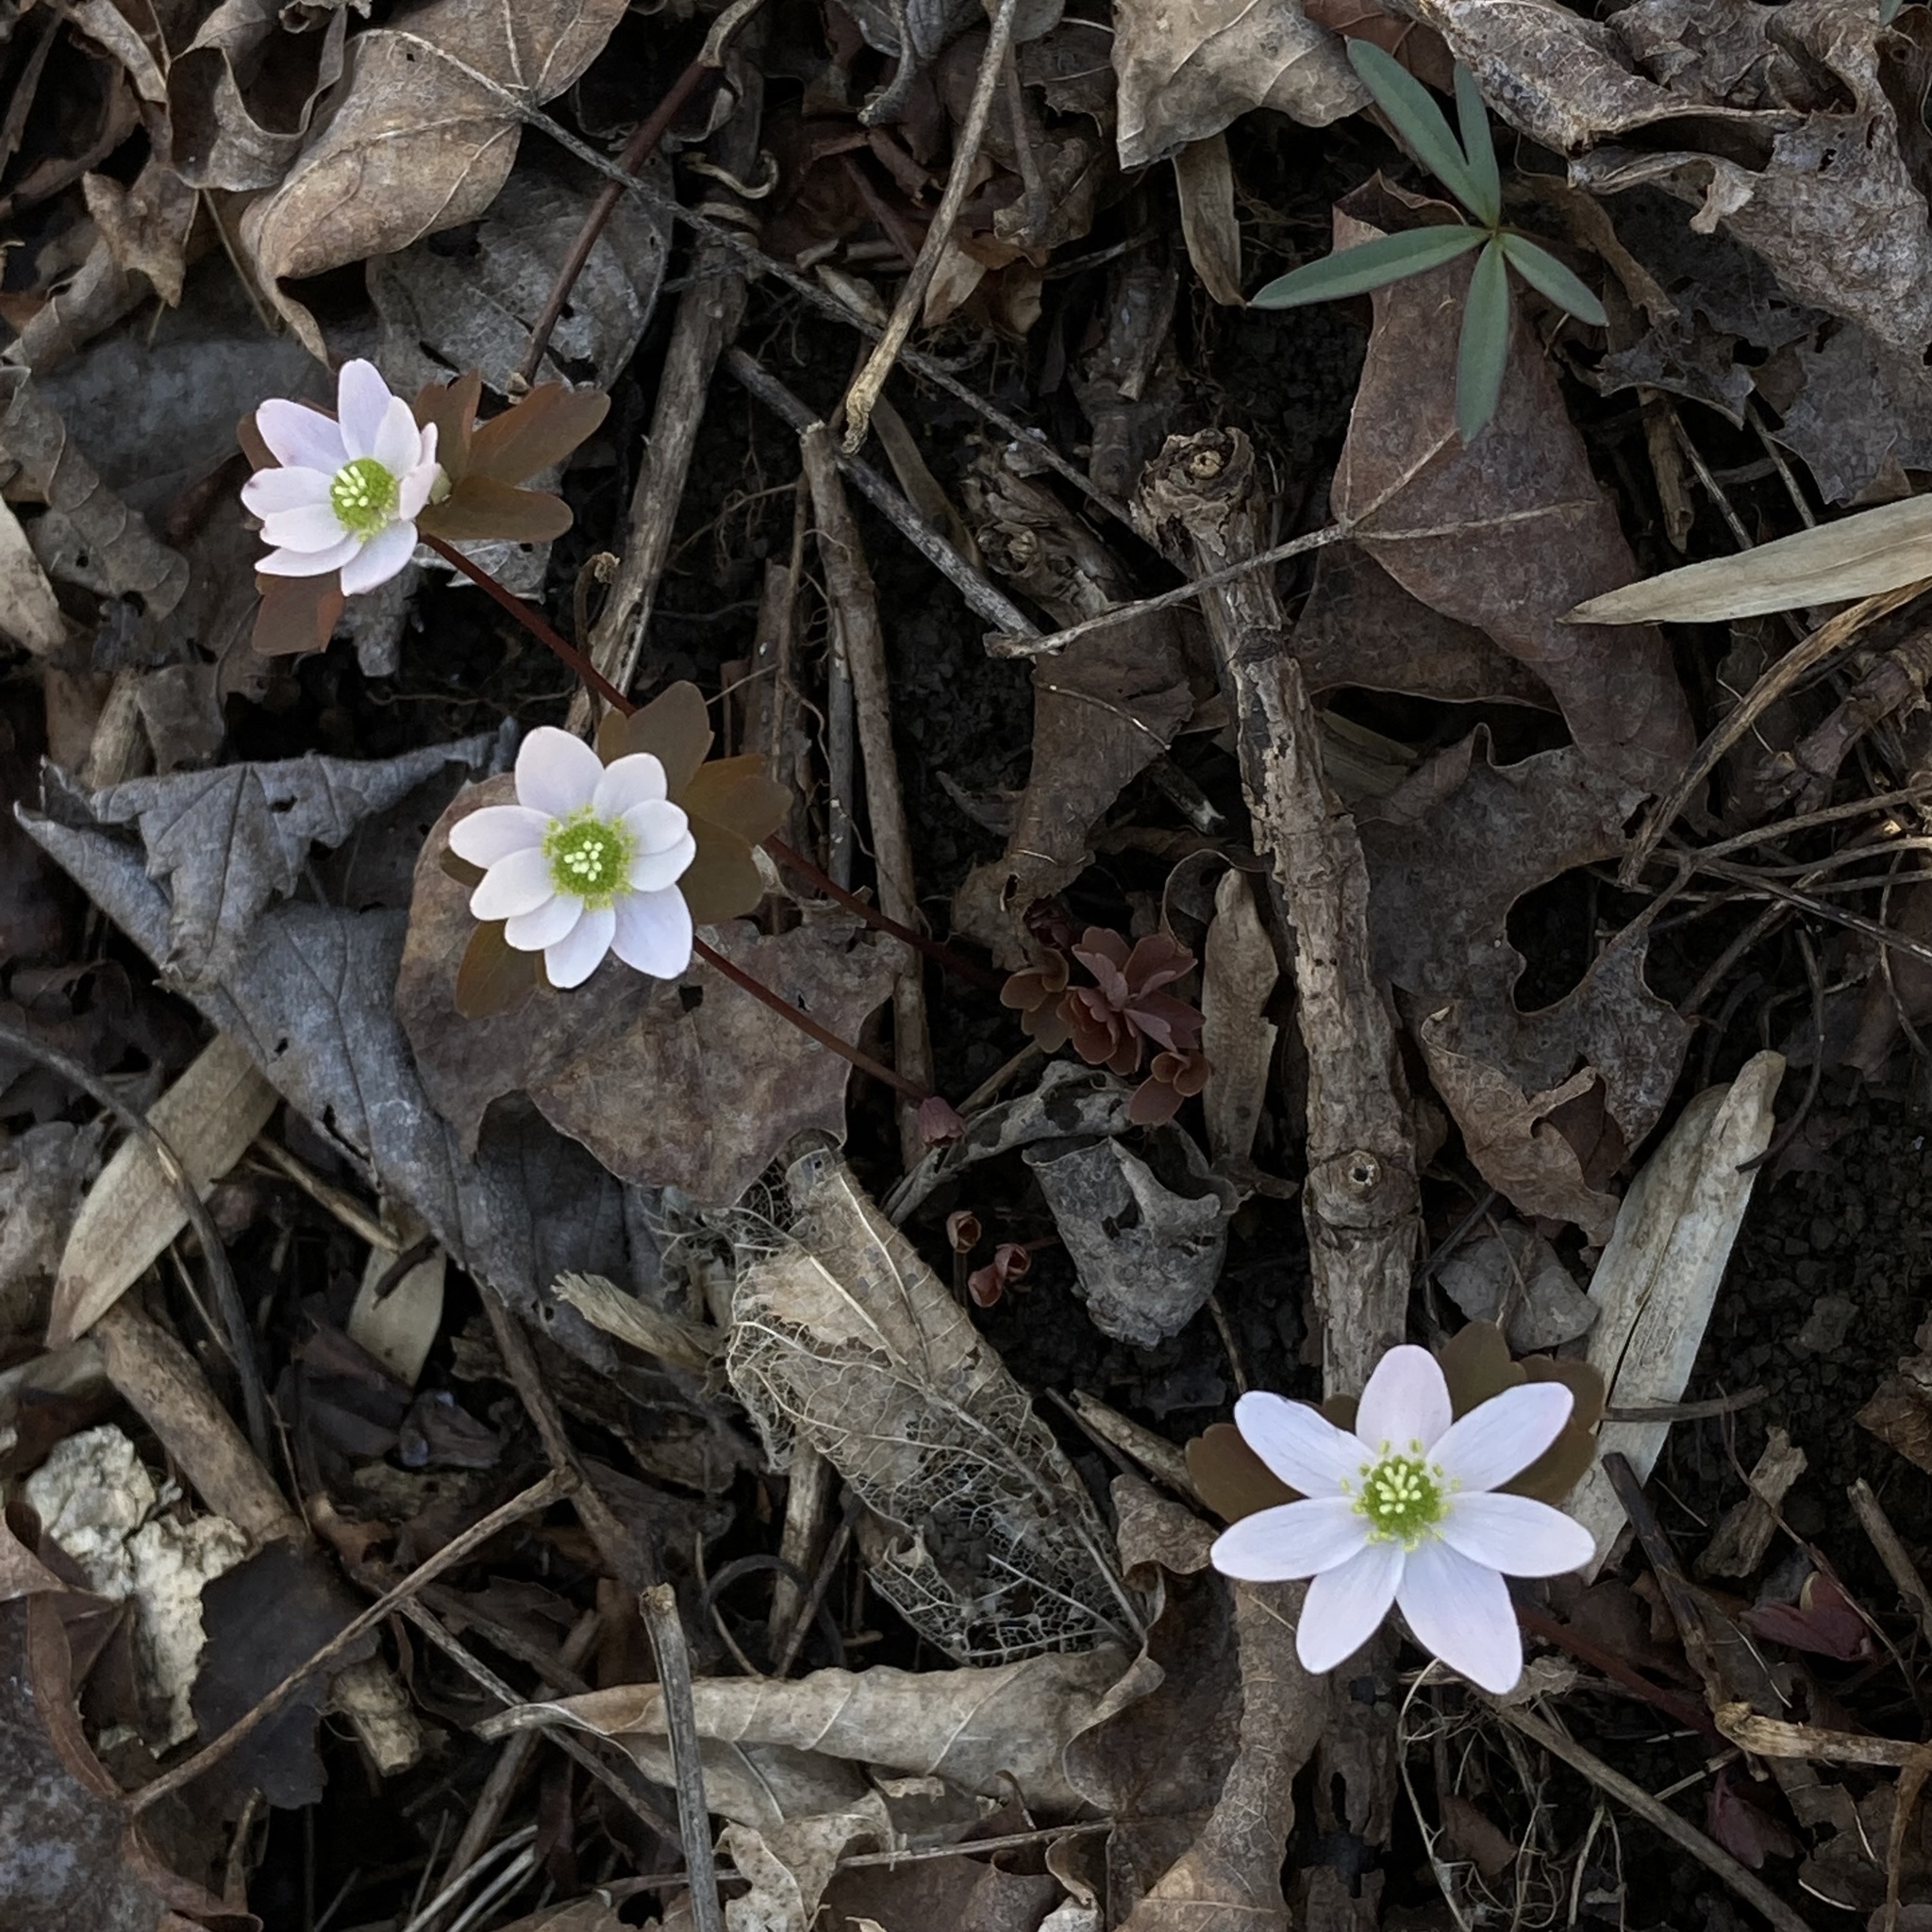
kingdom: Plantae
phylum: Tracheophyta
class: Magnoliopsida
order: Ranunculales
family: Ranunculaceae
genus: Thalictrum
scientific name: Thalictrum thalictroides
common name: Rue-anemone
